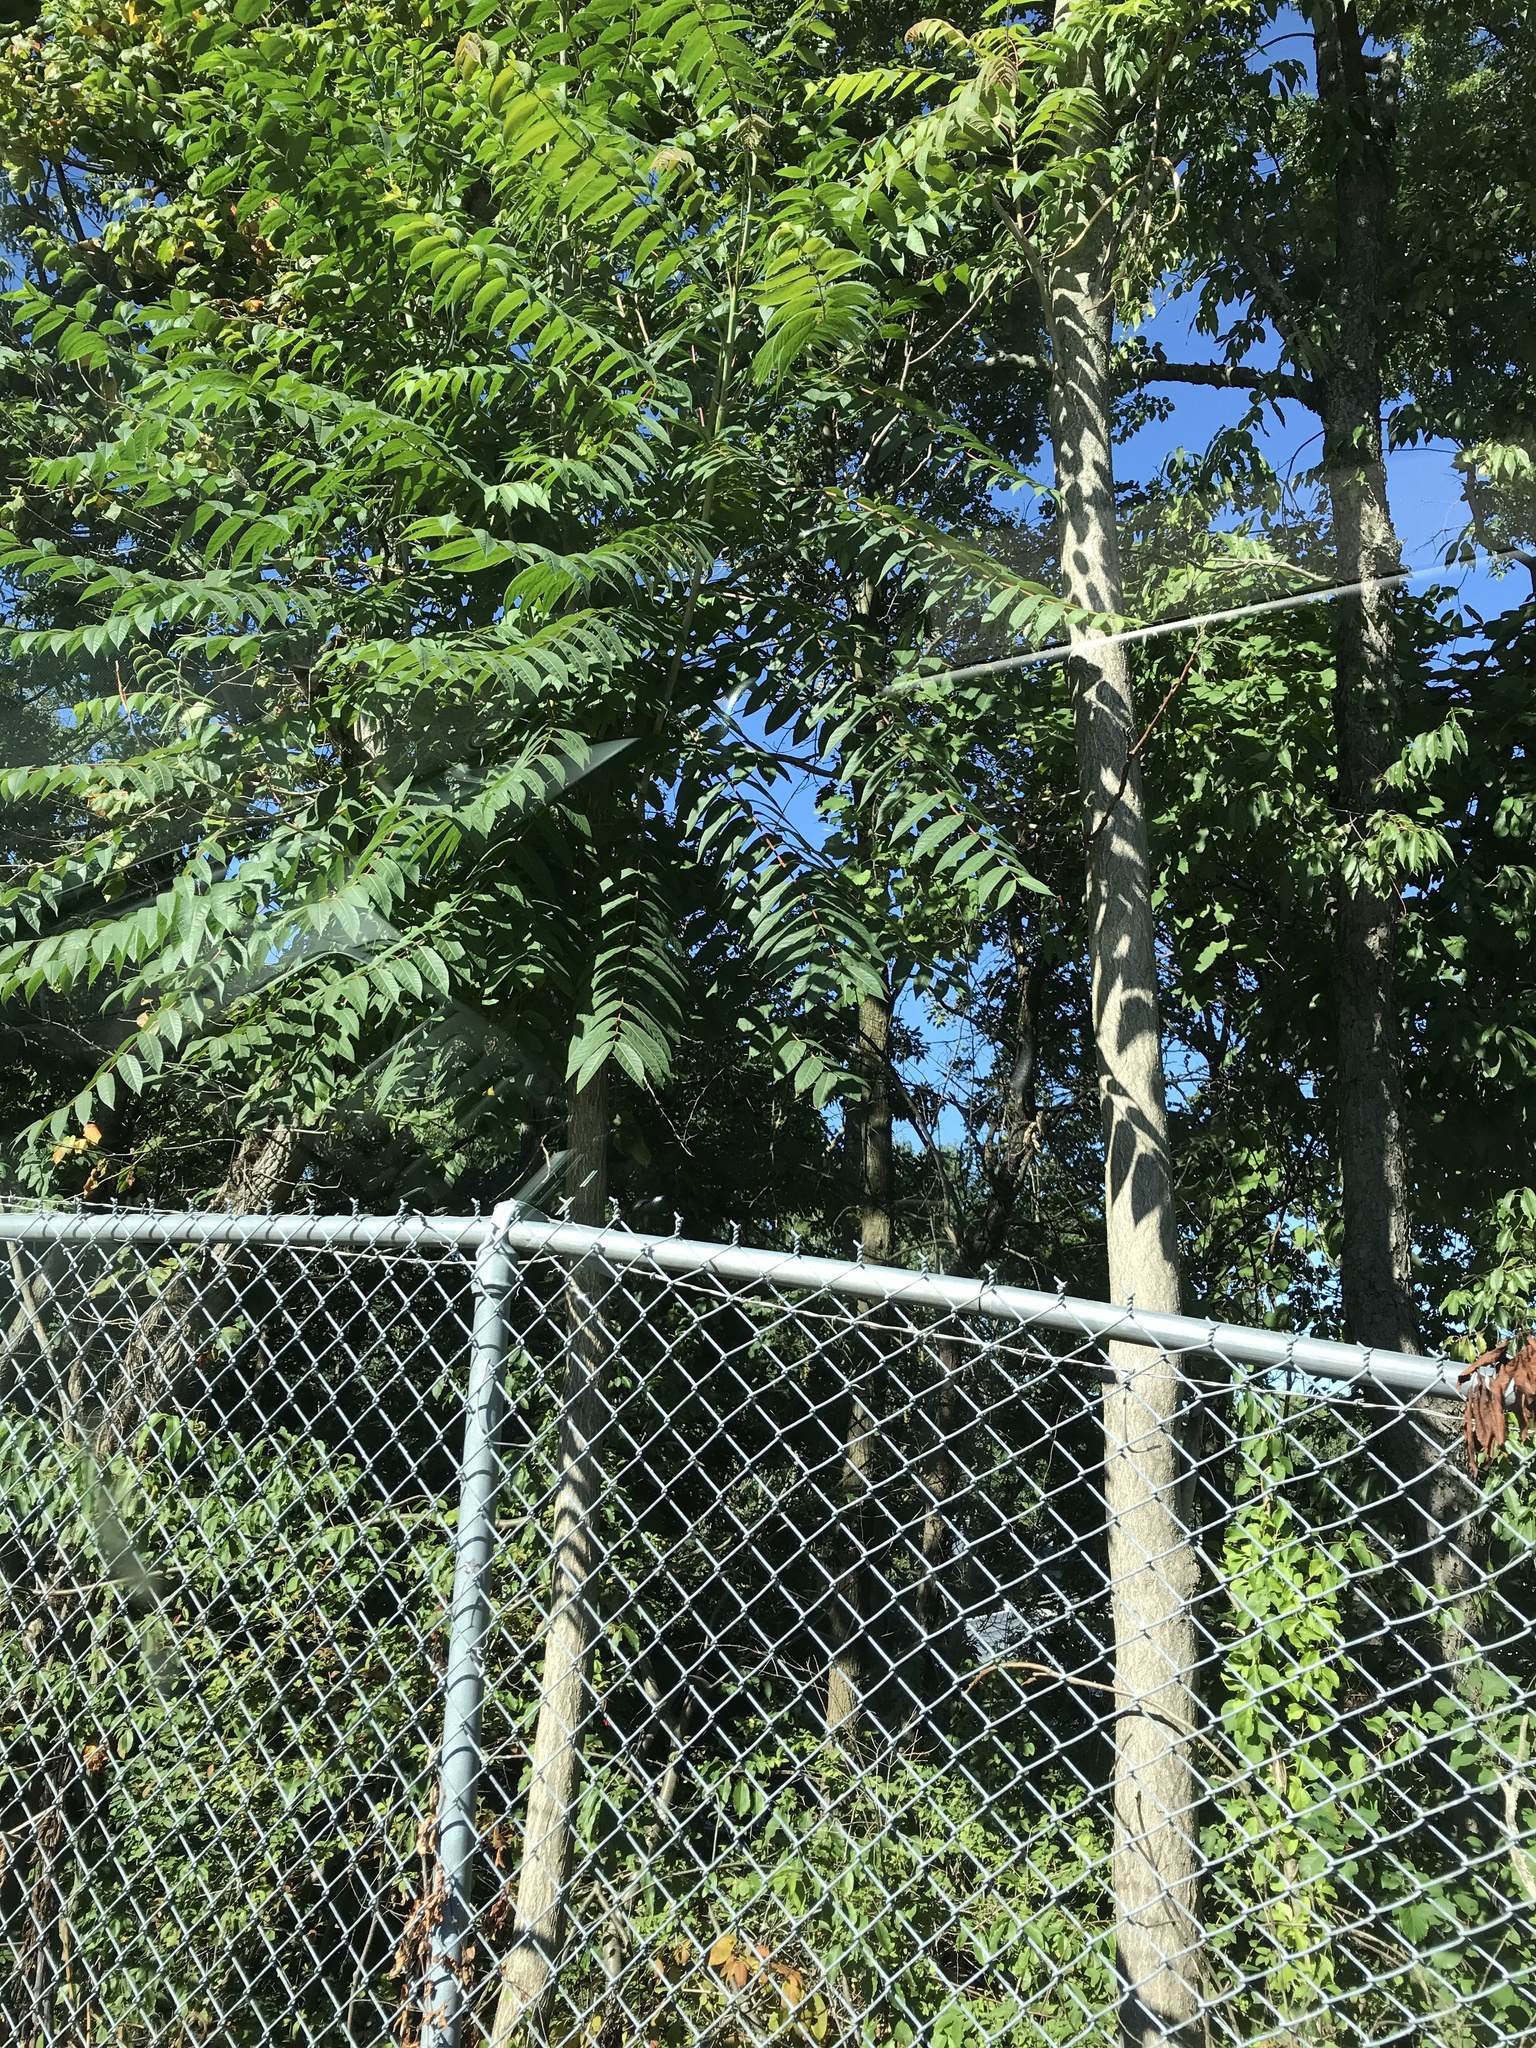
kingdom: Plantae
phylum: Tracheophyta
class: Magnoliopsida
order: Sapindales
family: Simaroubaceae
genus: Ailanthus
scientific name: Ailanthus altissima
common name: Tree-of-heaven
